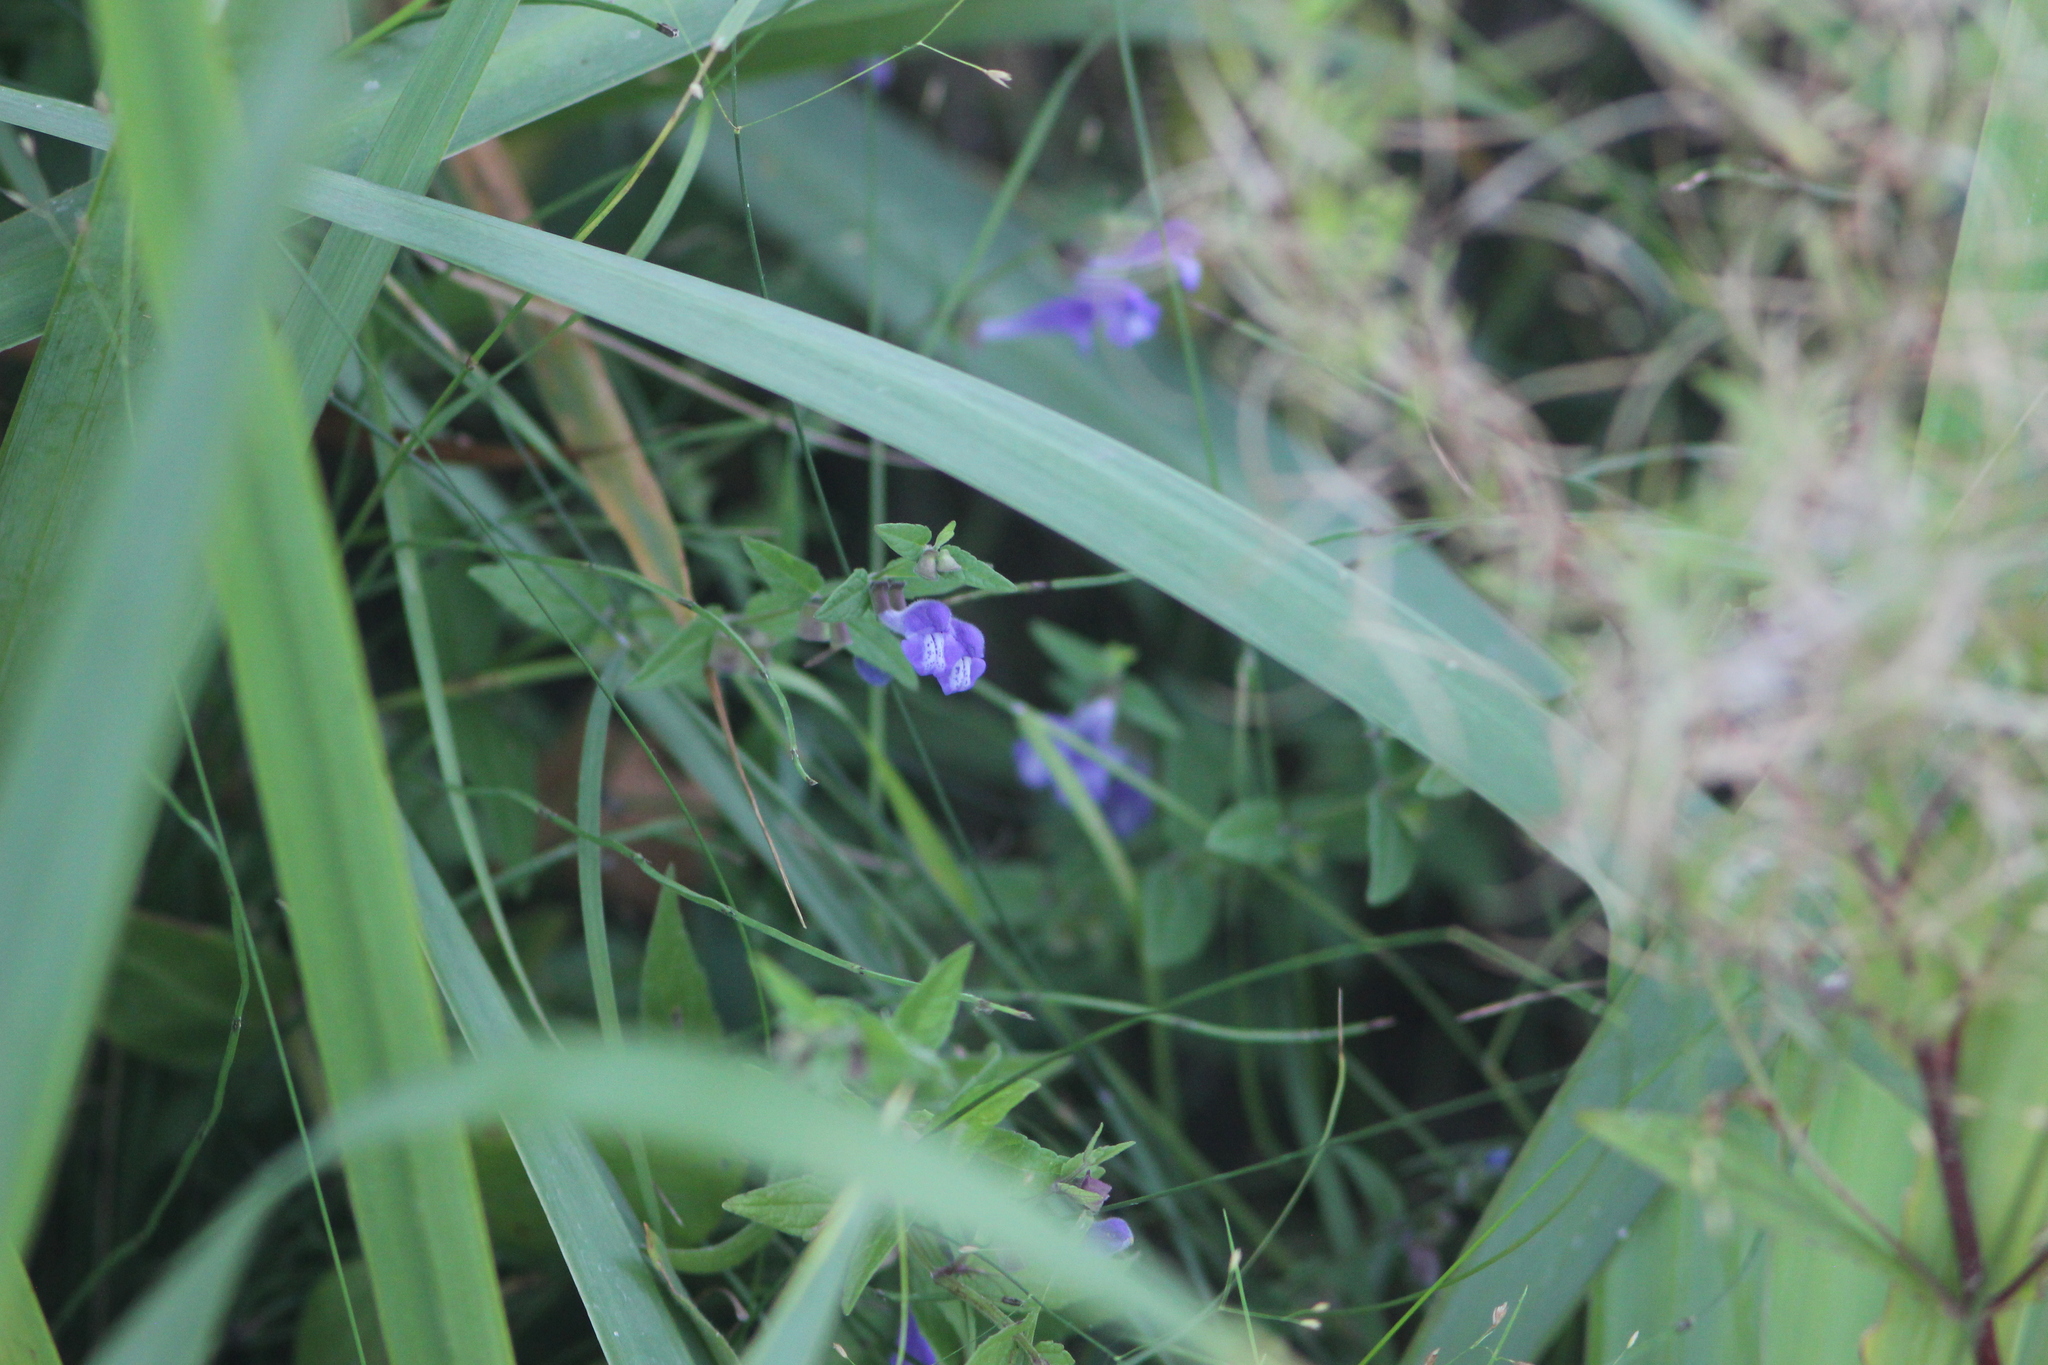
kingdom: Plantae
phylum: Tracheophyta
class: Magnoliopsida
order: Lamiales
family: Lamiaceae
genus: Scutellaria
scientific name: Scutellaria galericulata
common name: Skullcap
